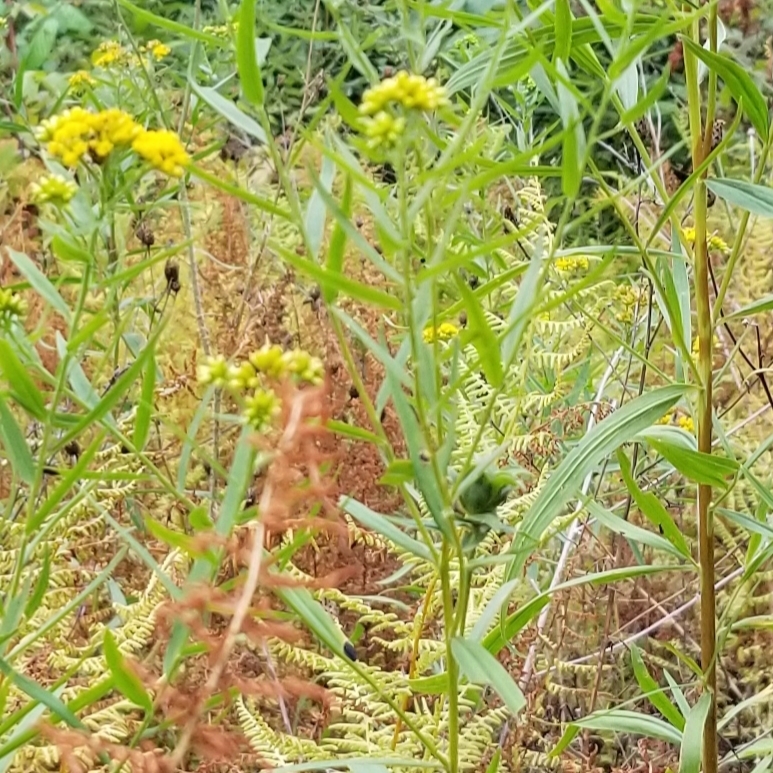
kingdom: Animalia
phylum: Arthropoda
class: Insecta
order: Diptera
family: Cecidomyiidae
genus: Asphondylia
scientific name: Asphondylia pseudorosa
